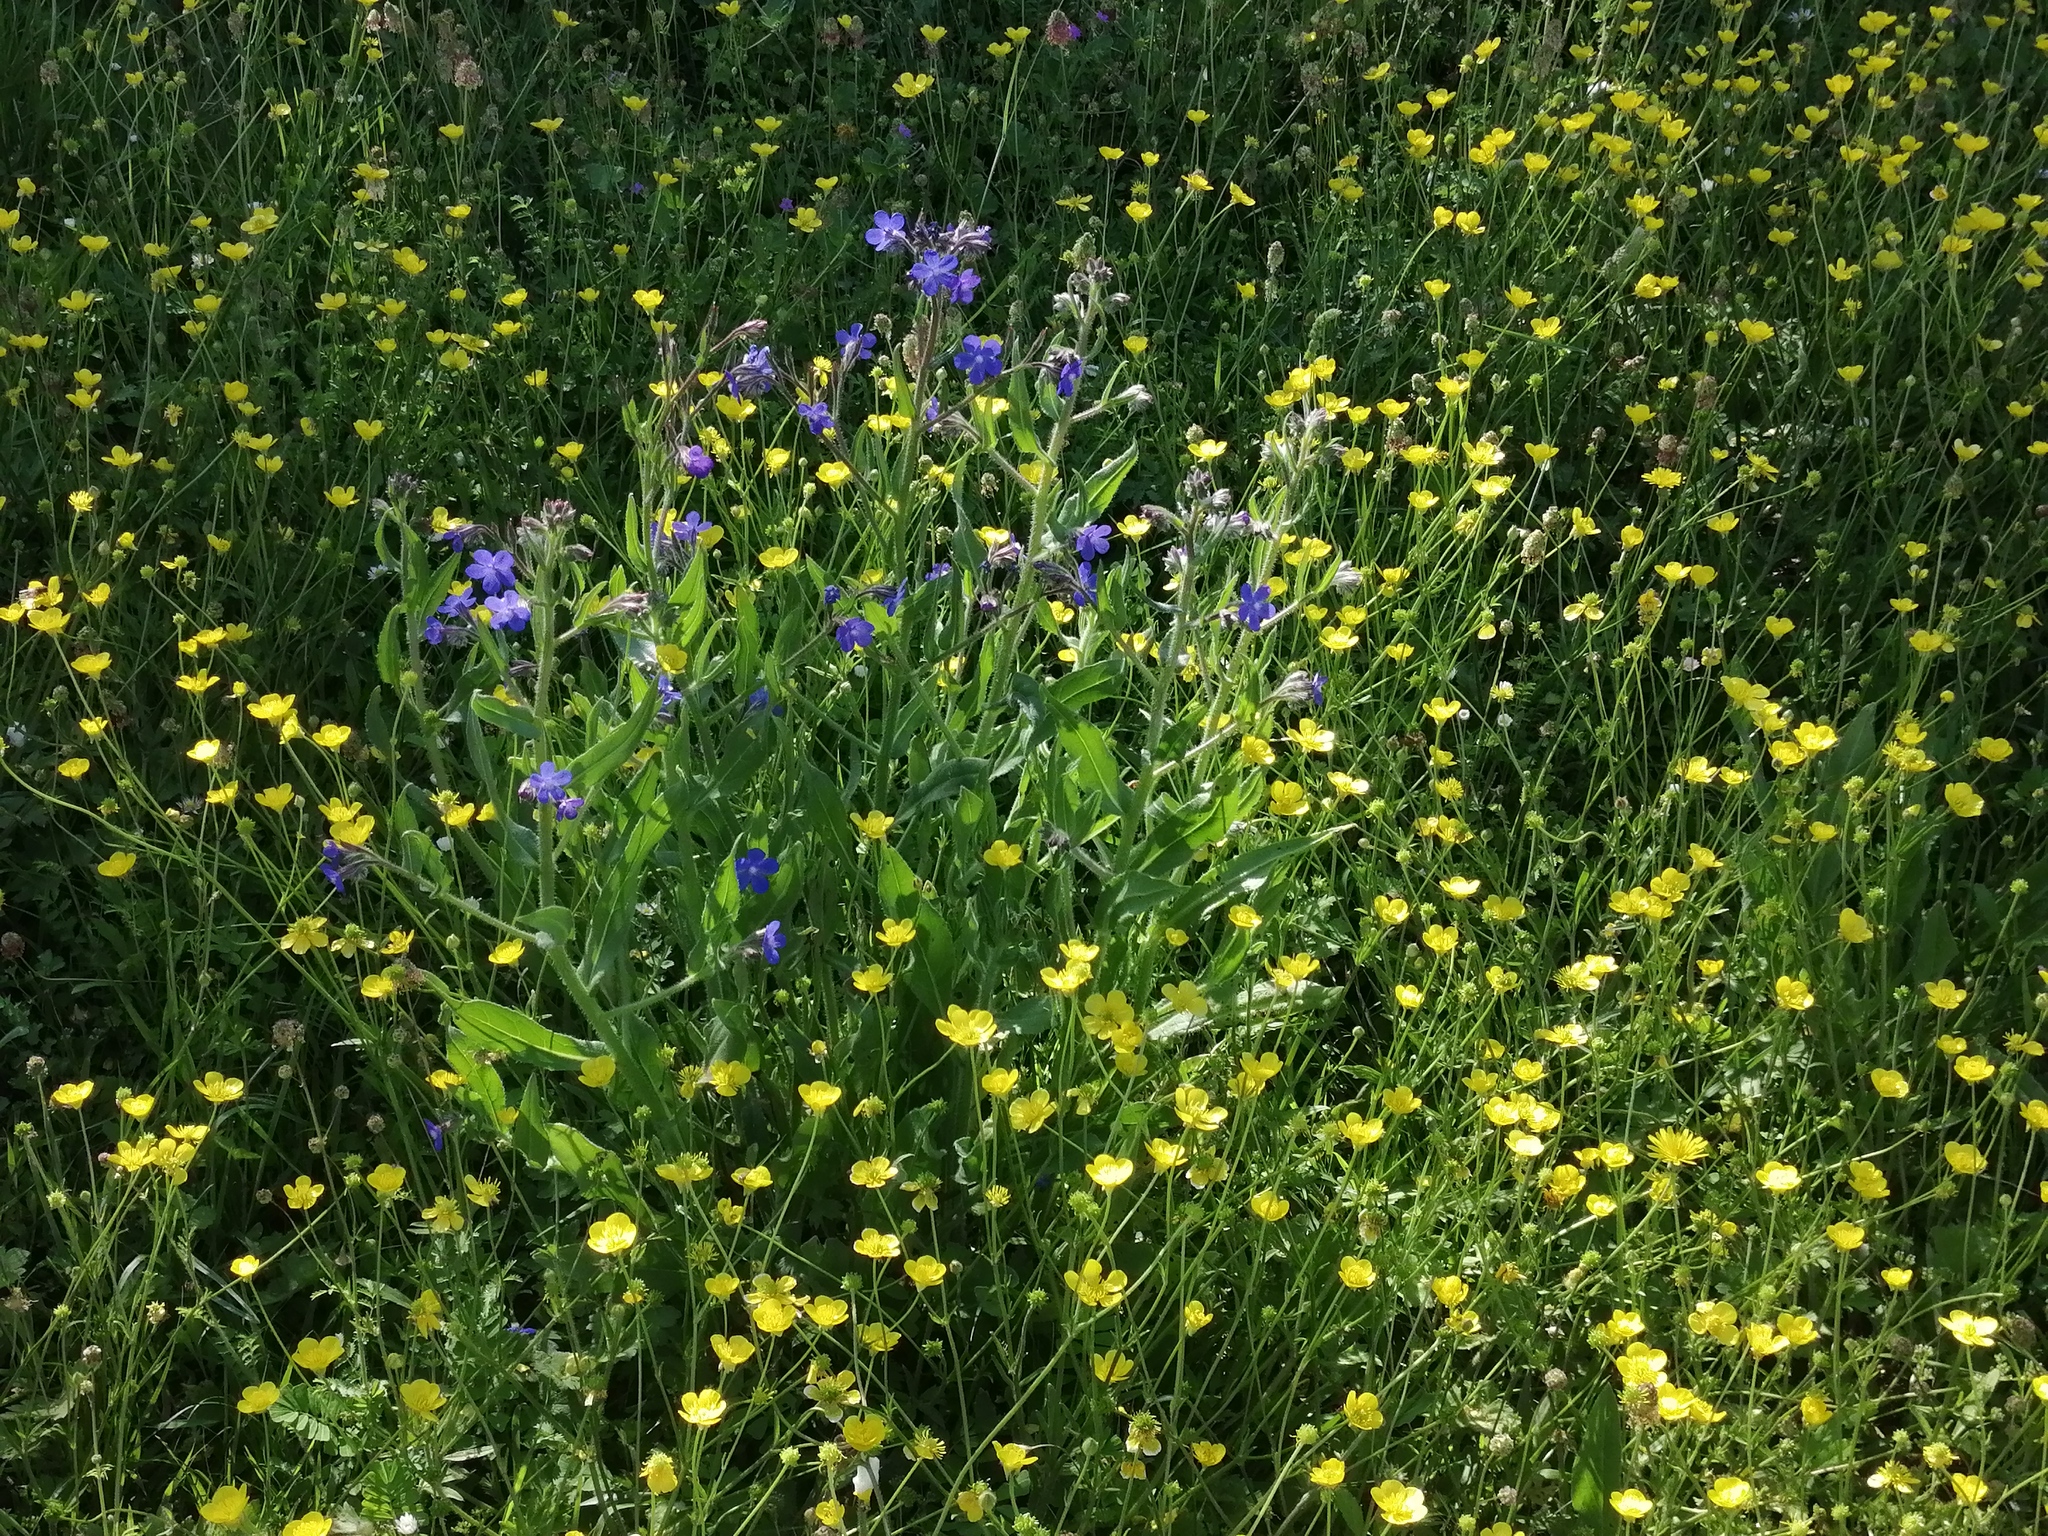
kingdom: Plantae
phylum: Tracheophyta
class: Magnoliopsida
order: Boraginales
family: Boraginaceae
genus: Anchusa
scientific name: Anchusa azurea
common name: Garden anchusa
